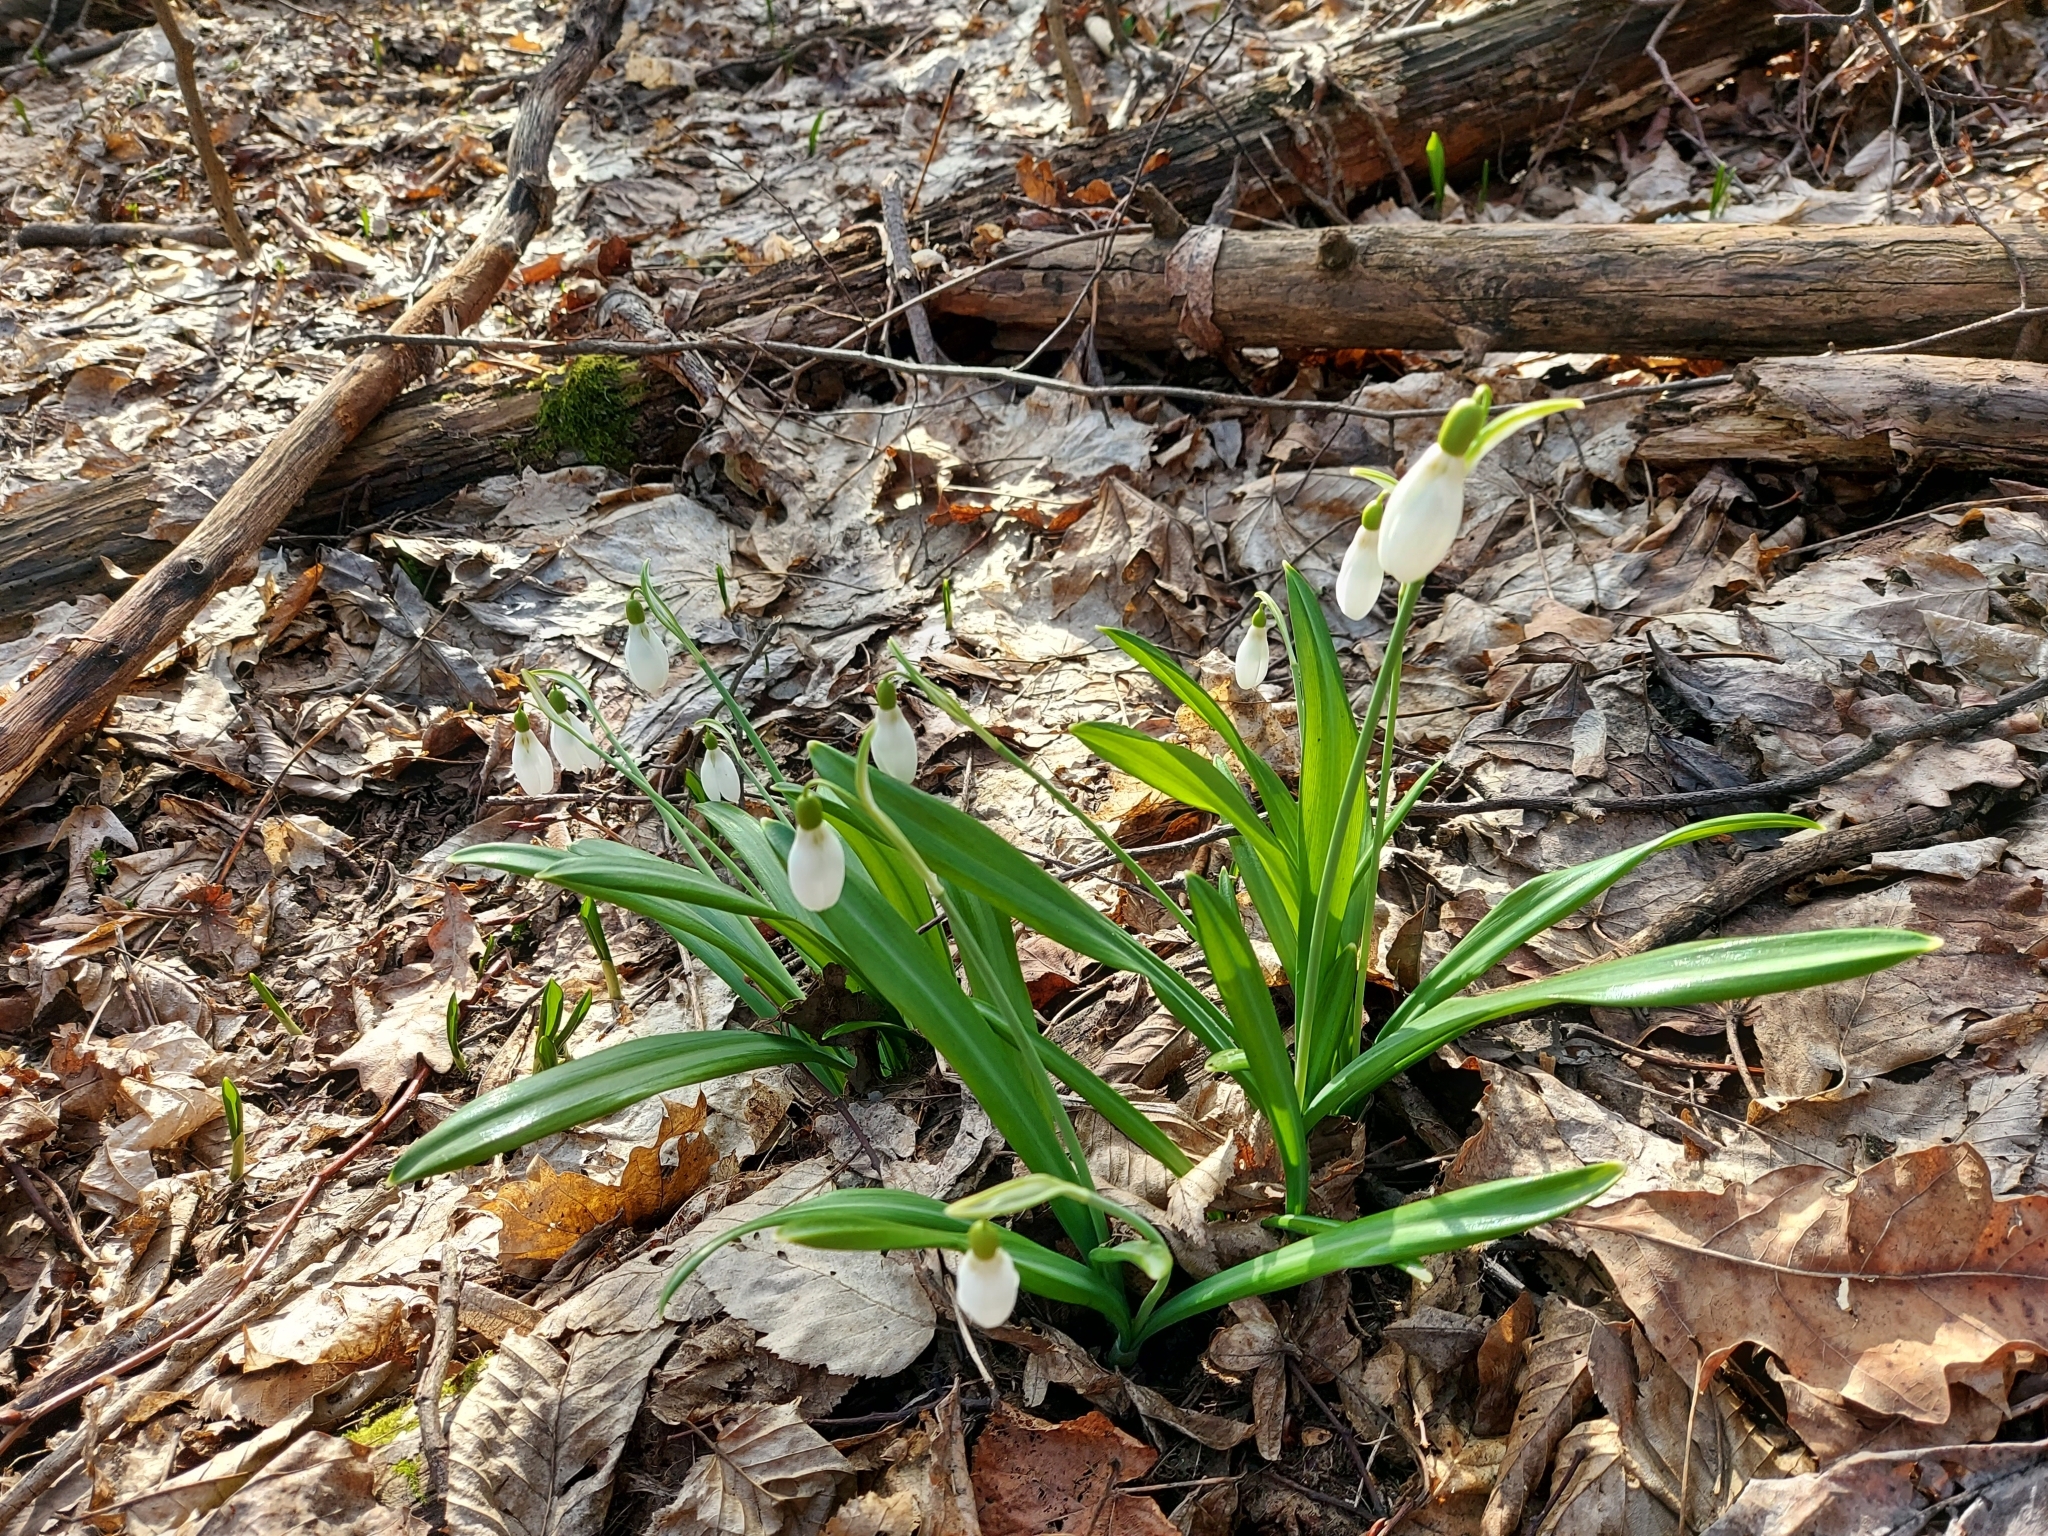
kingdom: Plantae
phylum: Tracheophyta
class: Liliopsida
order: Asparagales
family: Amaryllidaceae
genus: Galanthus
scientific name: Galanthus plicatus
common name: Pleated snowdrop
